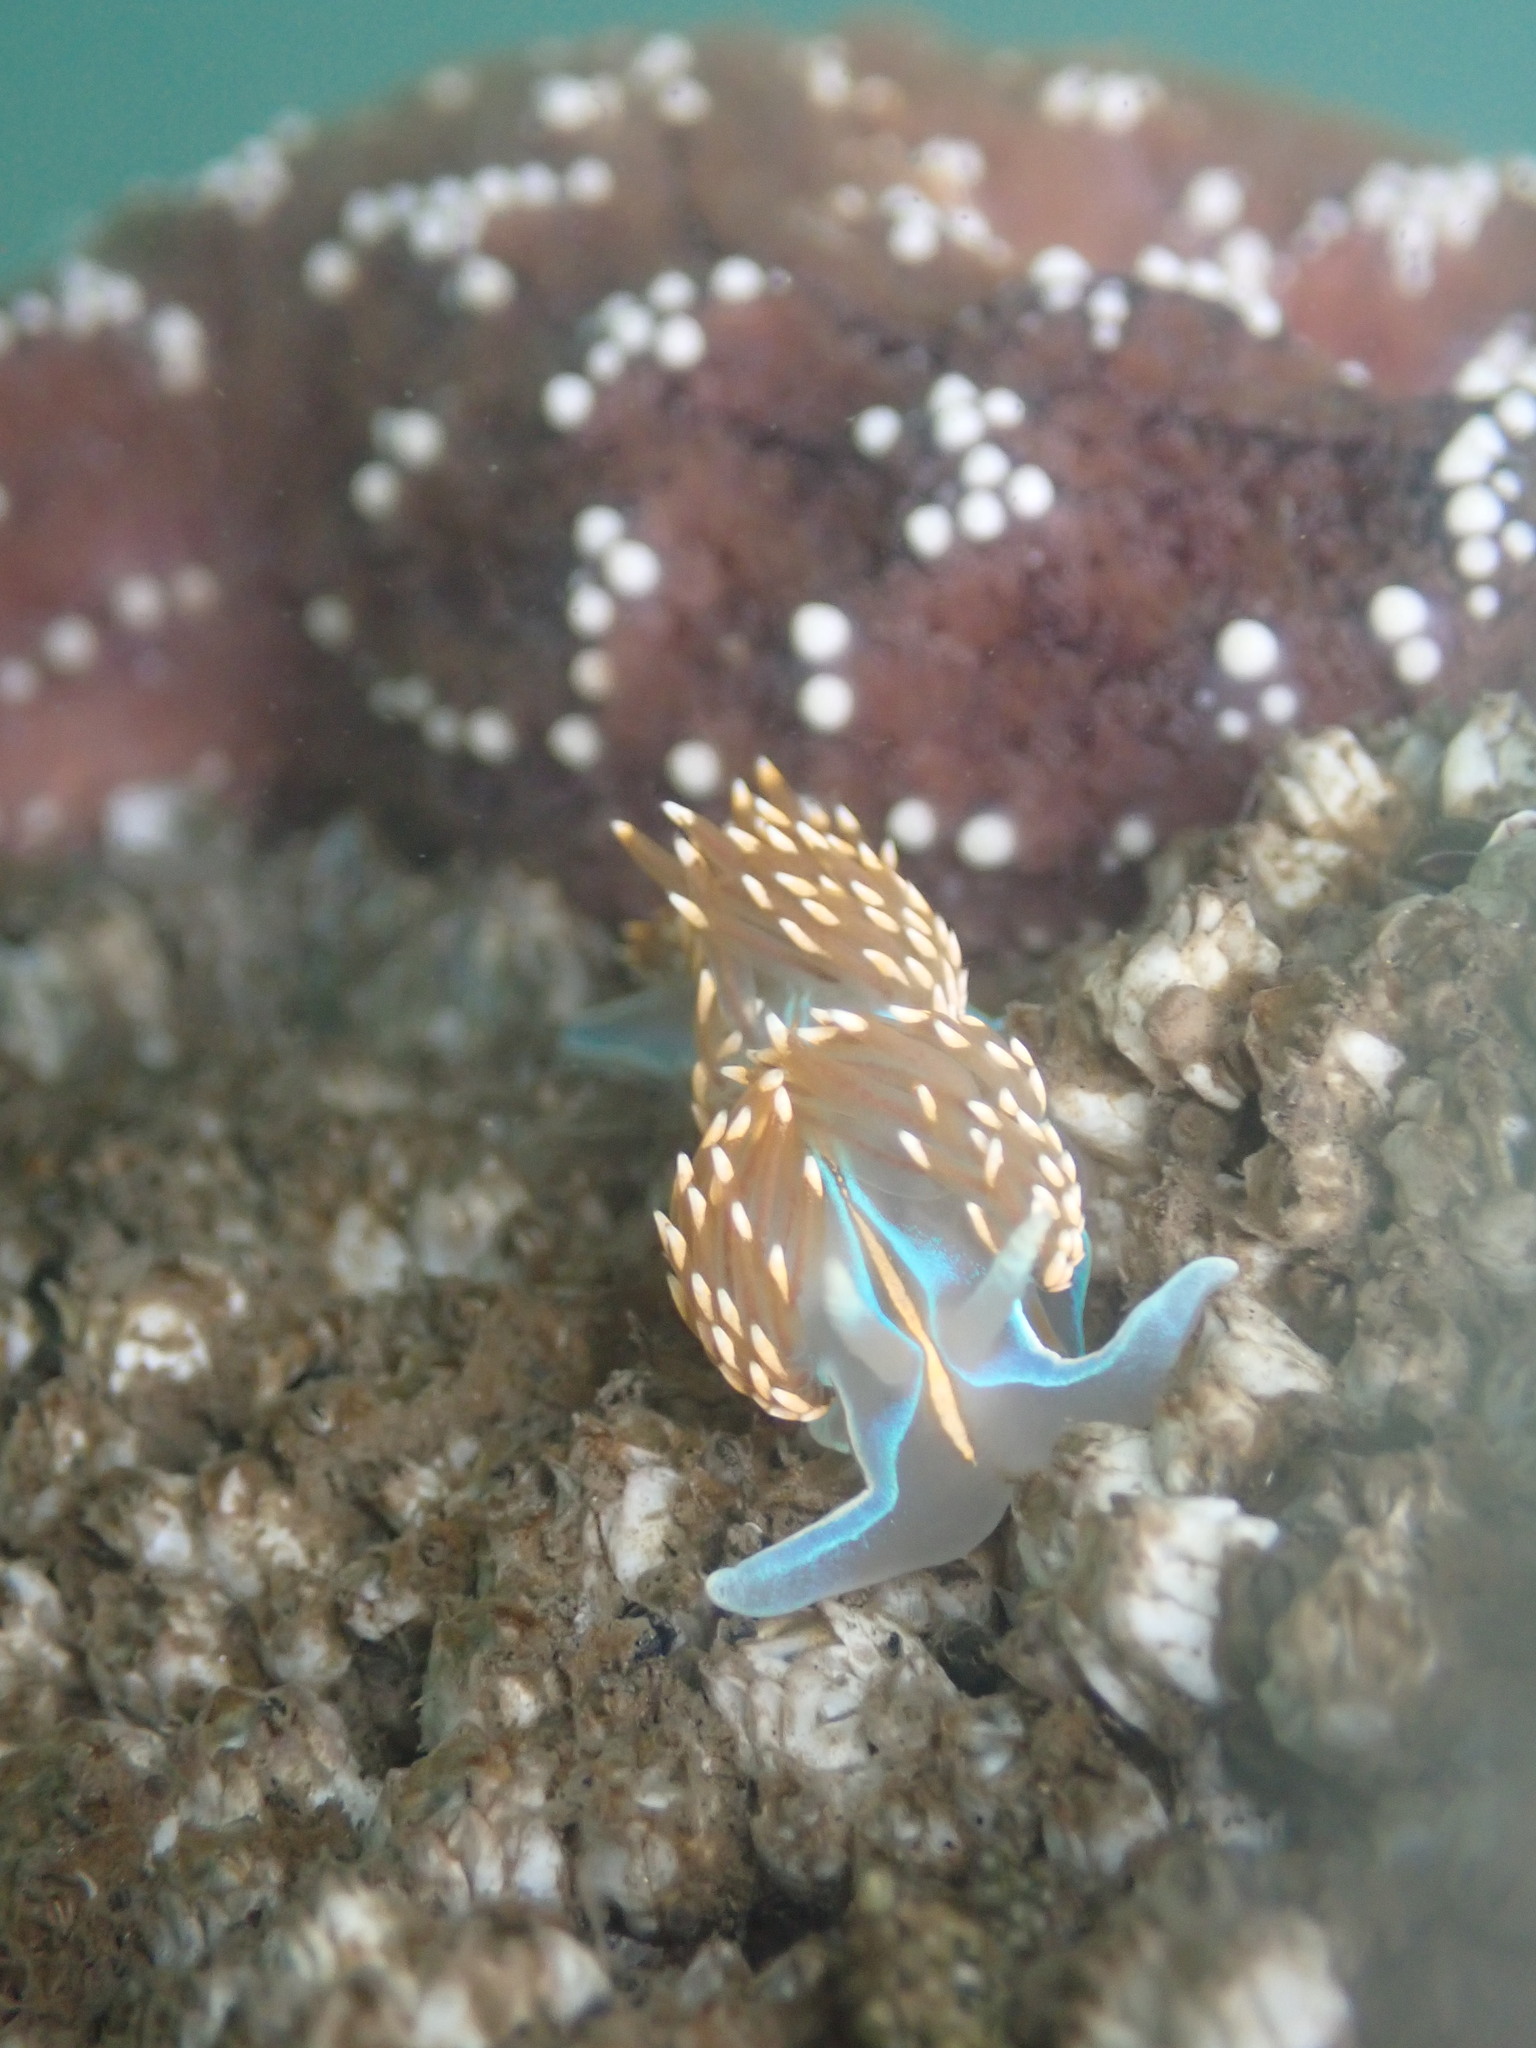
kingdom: Animalia
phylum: Mollusca
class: Gastropoda
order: Nudibranchia
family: Myrrhinidae
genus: Hermissenda
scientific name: Hermissenda opalescens
